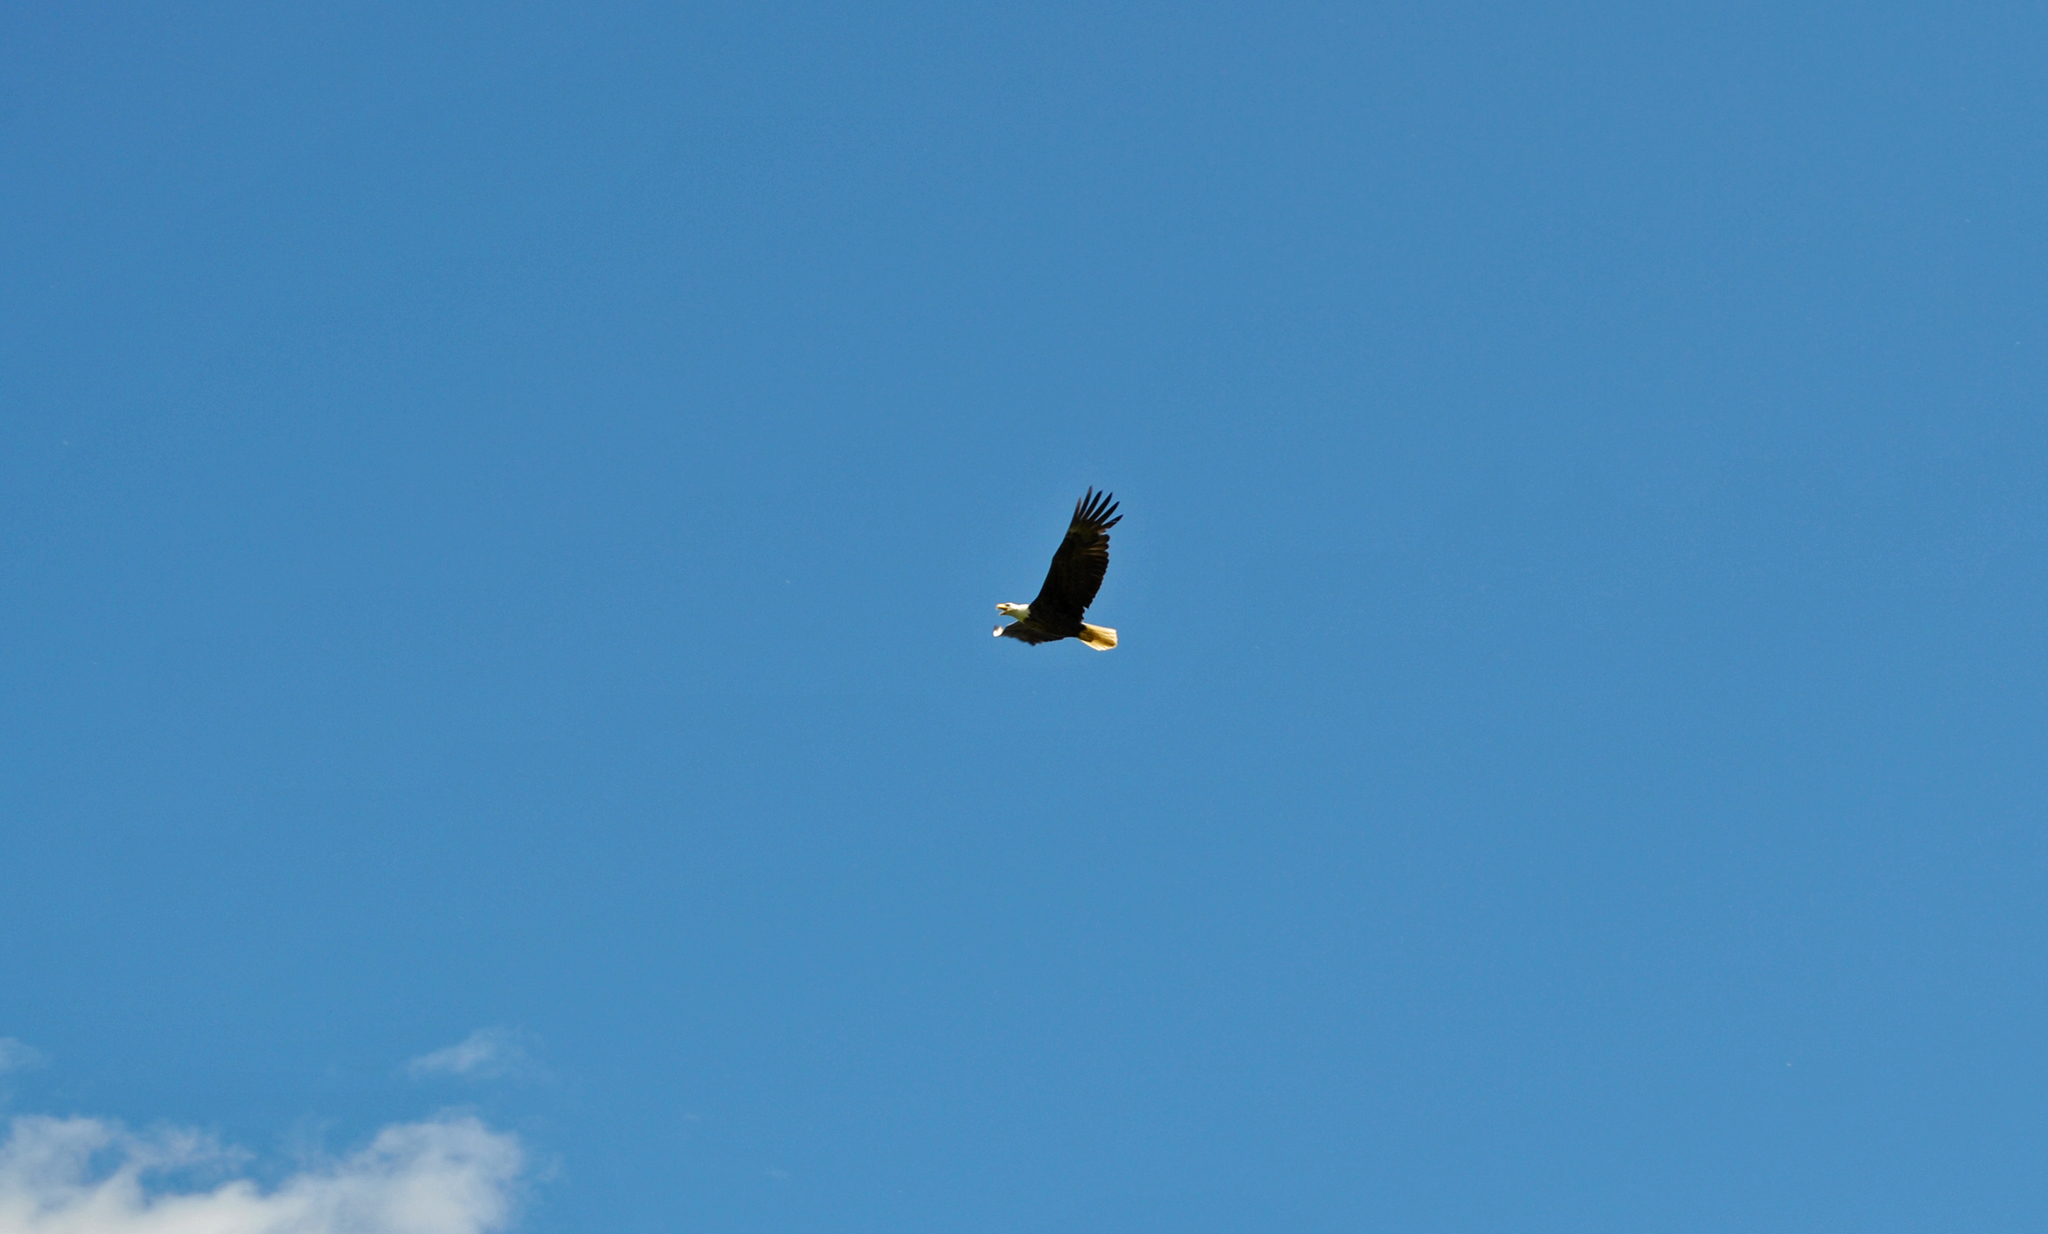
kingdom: Animalia
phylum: Chordata
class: Aves
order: Accipitriformes
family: Accipitridae
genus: Haliaeetus
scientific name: Haliaeetus leucocephalus
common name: Bald eagle
